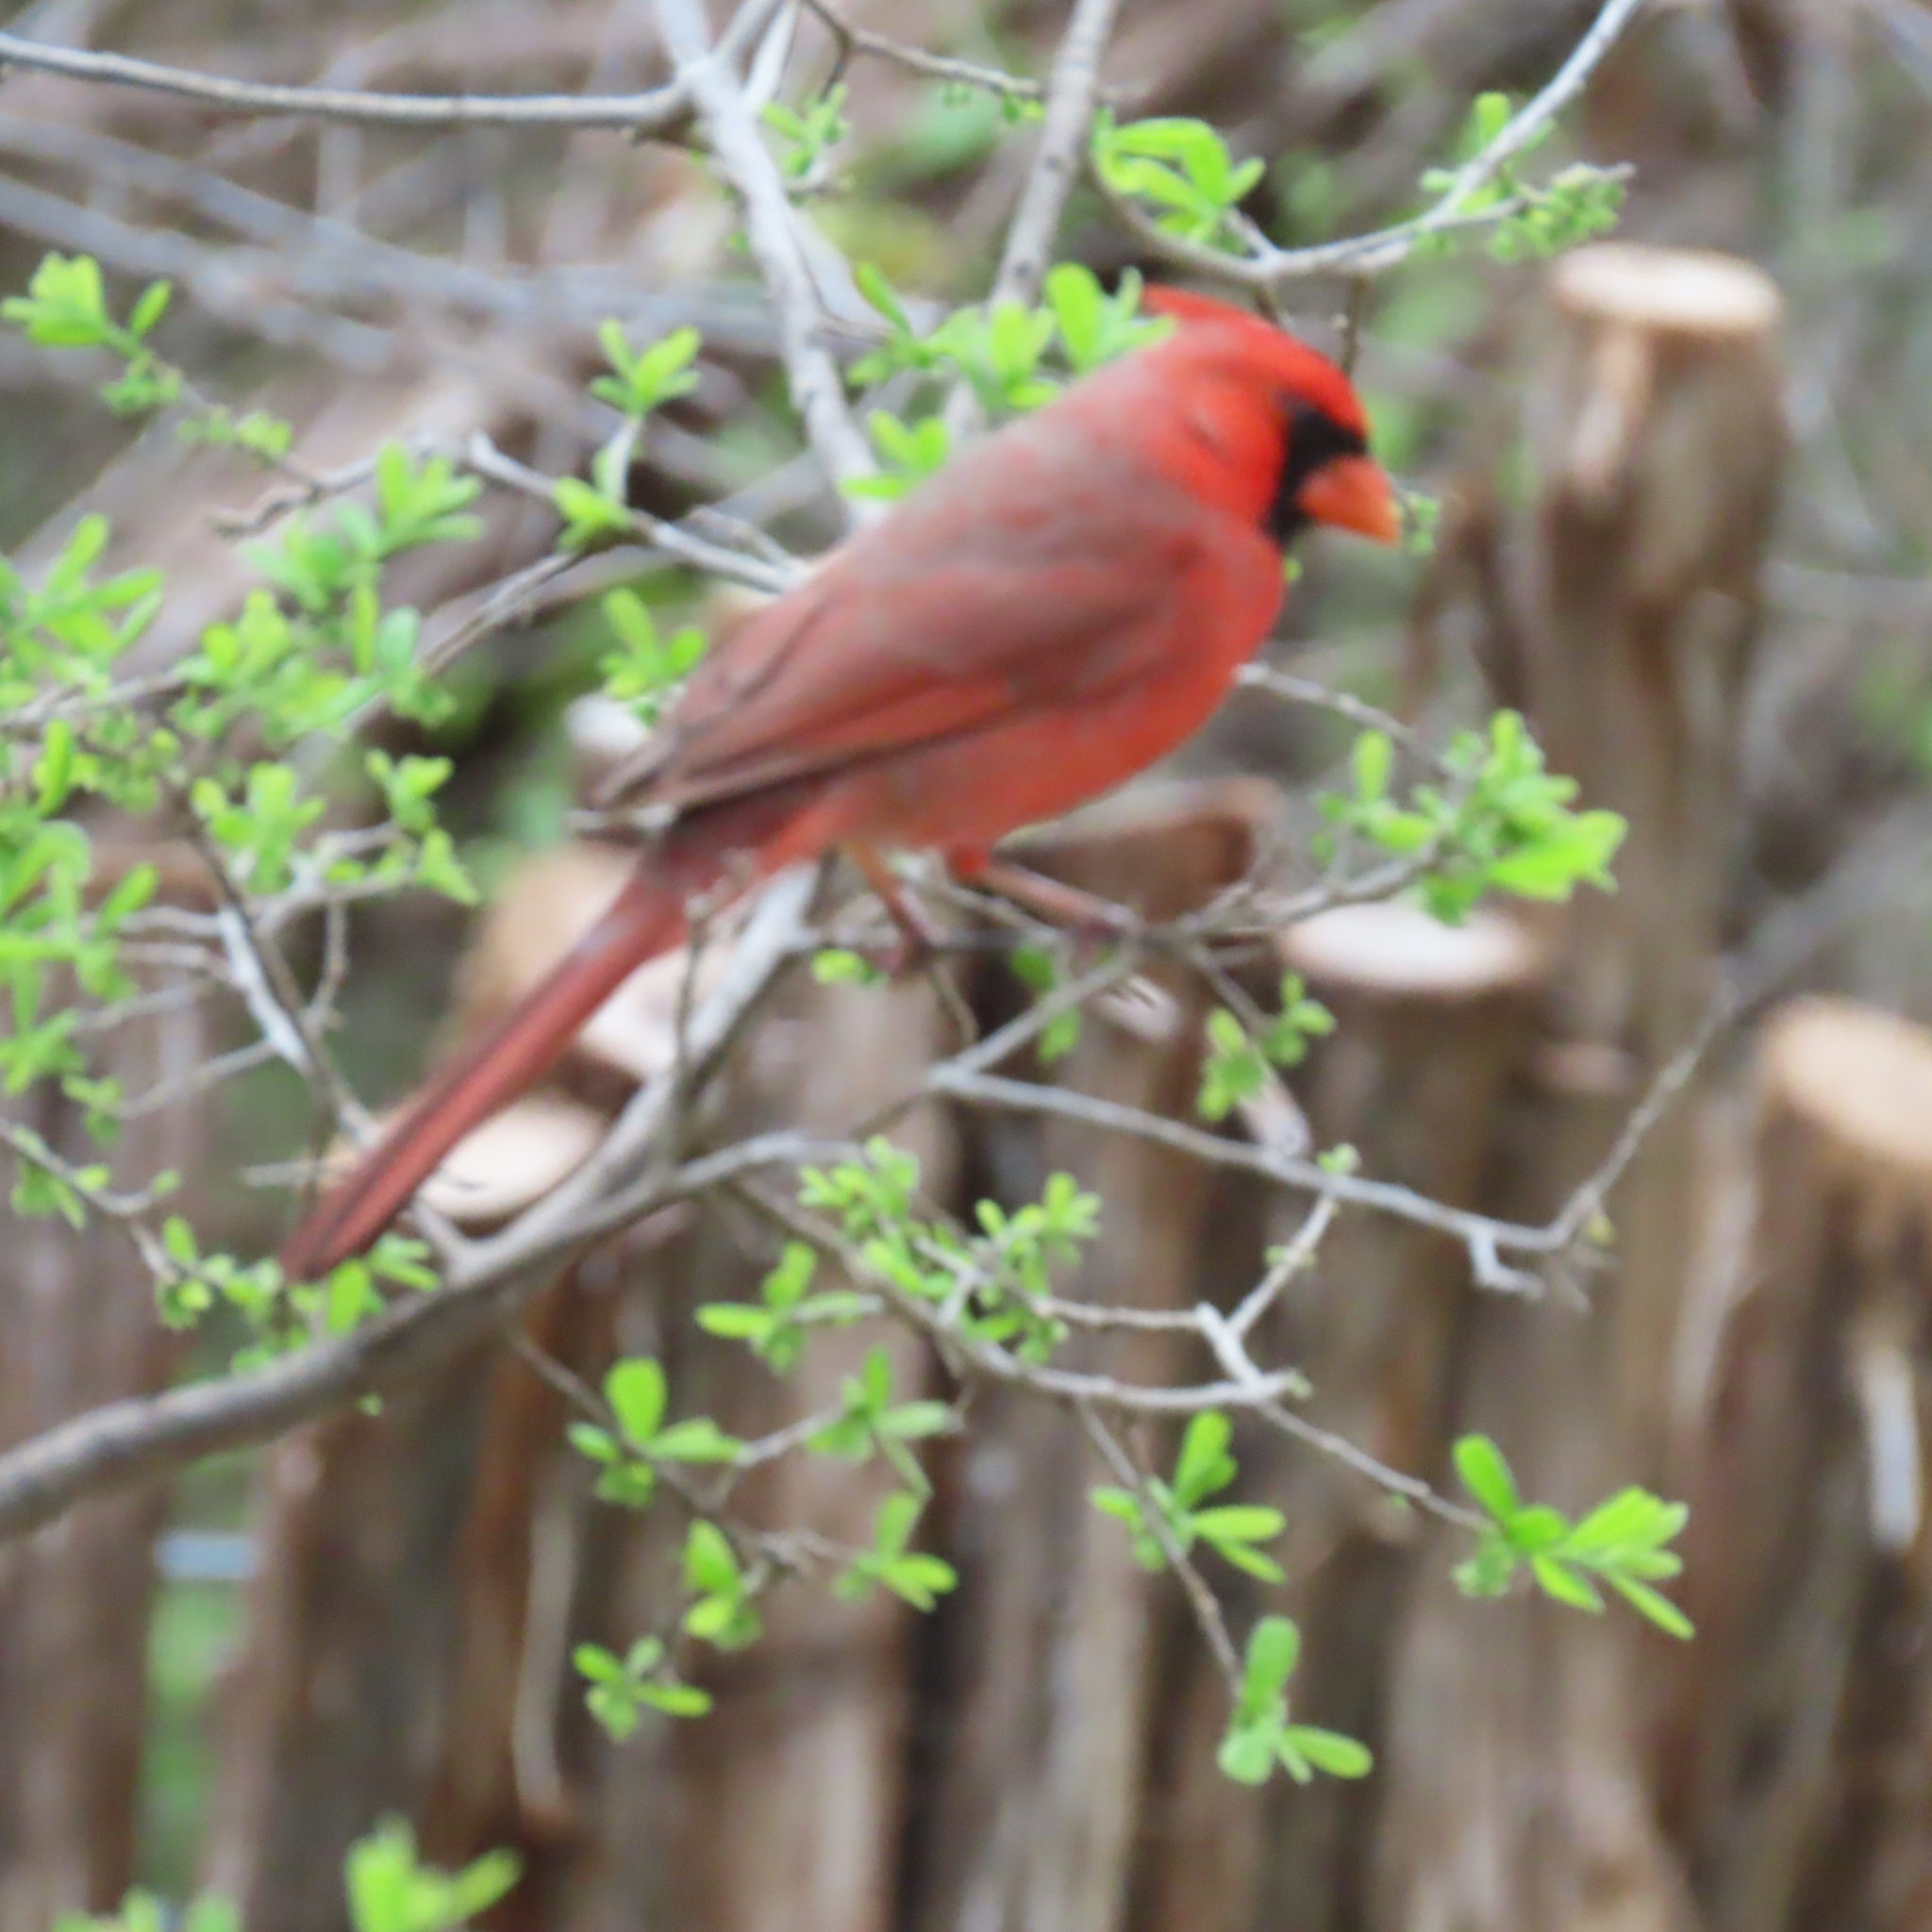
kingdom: Animalia
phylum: Chordata
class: Aves
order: Passeriformes
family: Cardinalidae
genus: Cardinalis
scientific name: Cardinalis cardinalis
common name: Northern cardinal
